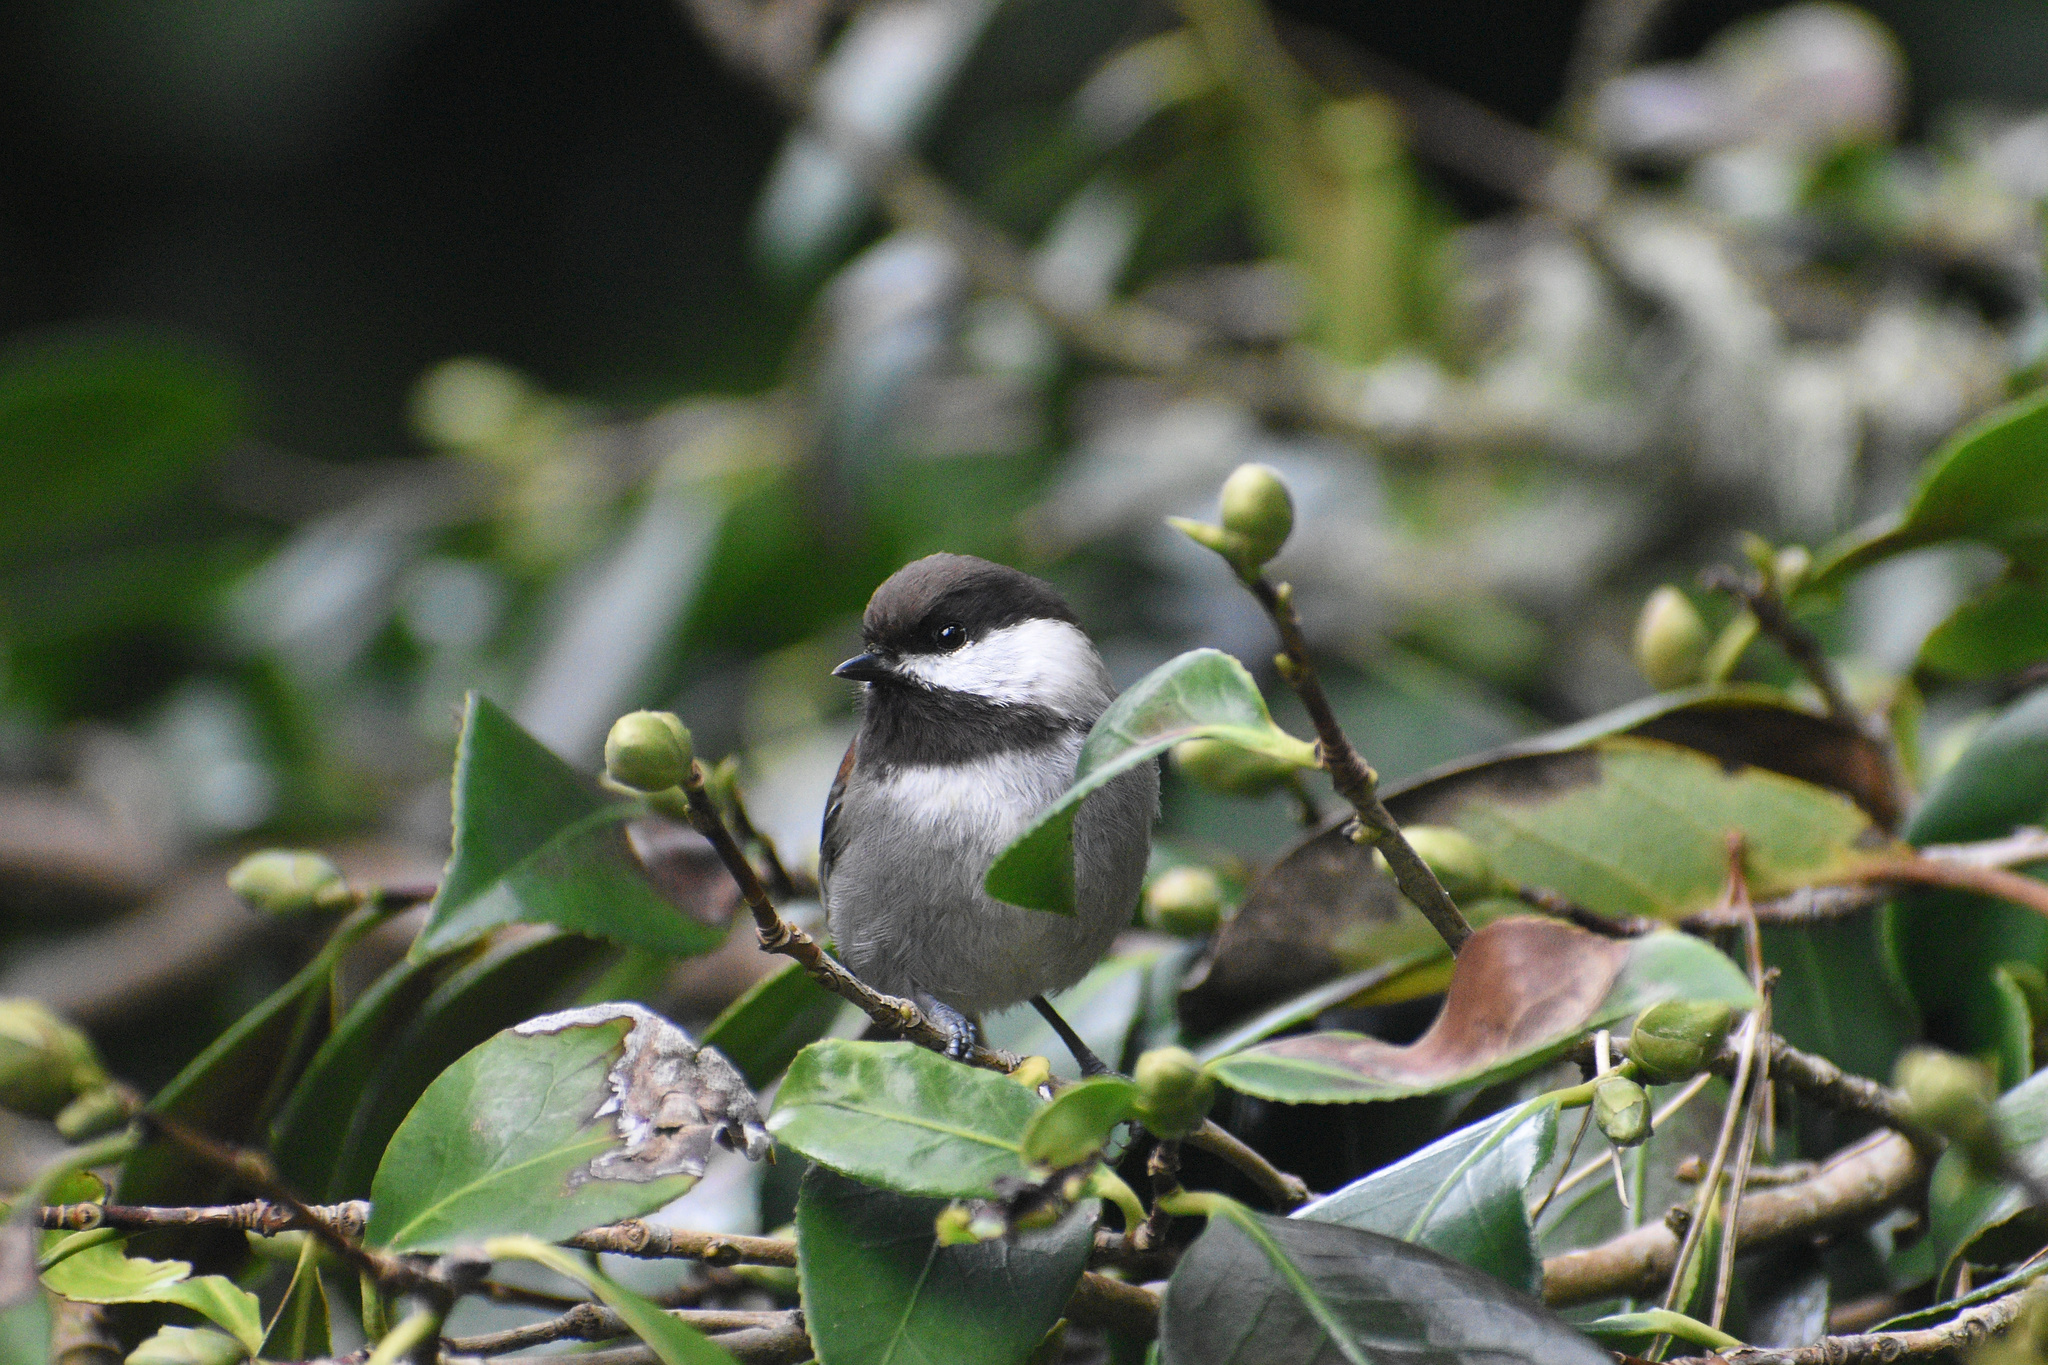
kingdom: Animalia
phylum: Chordata
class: Aves
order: Passeriformes
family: Paridae
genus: Poecile
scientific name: Poecile rufescens
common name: Chestnut-backed chickadee
